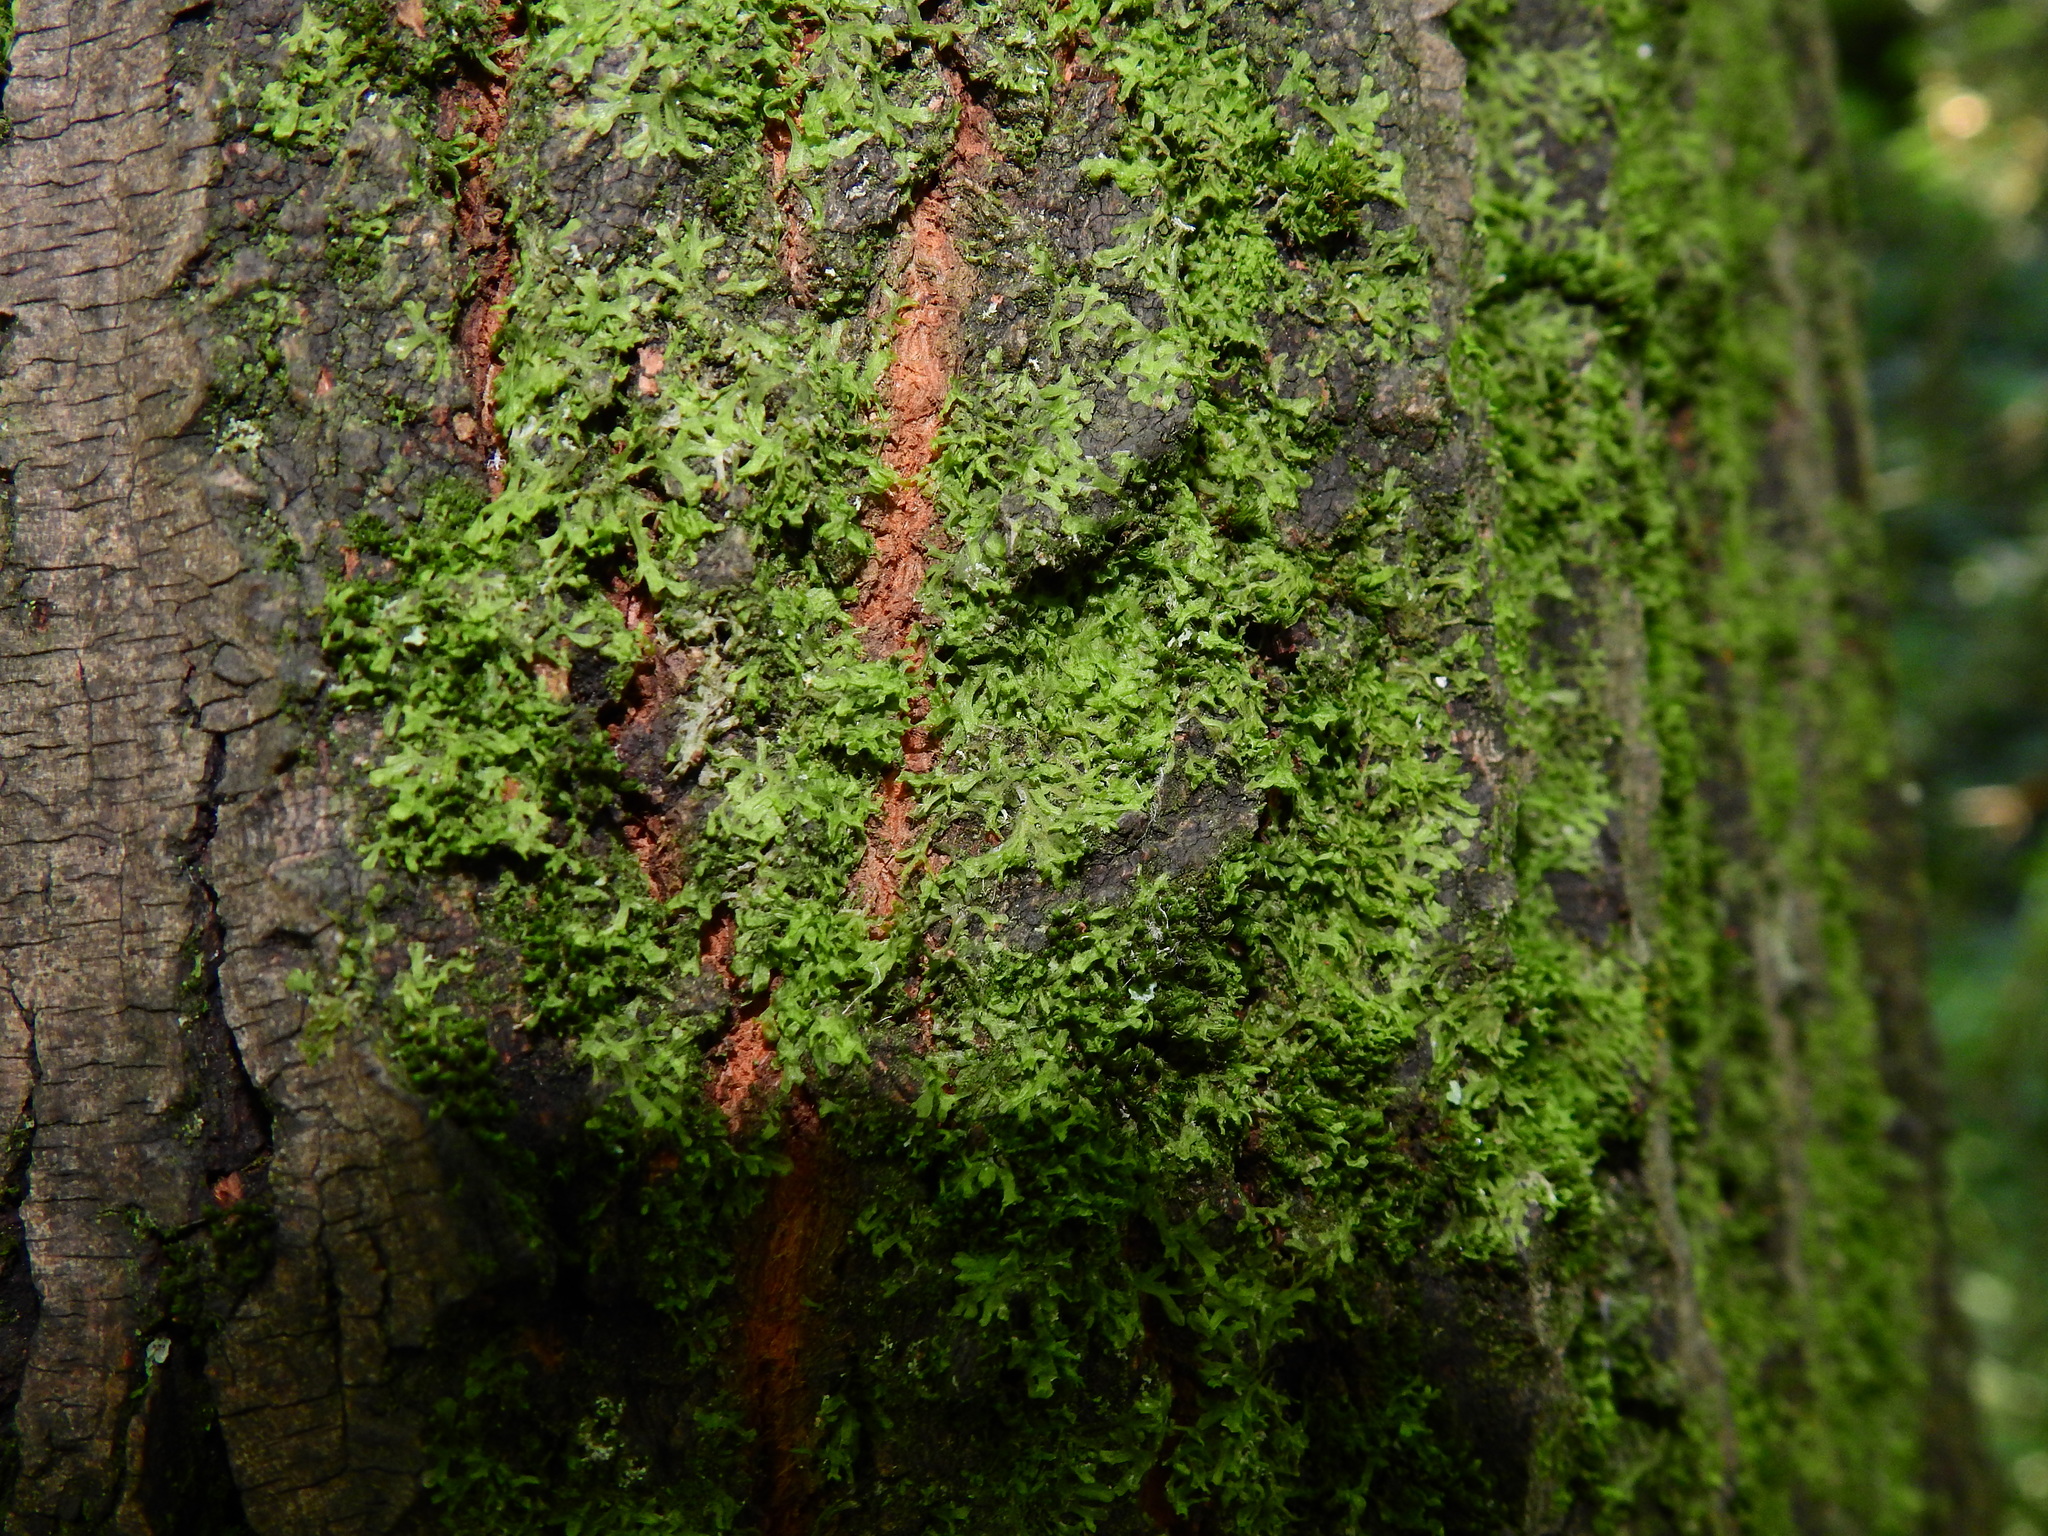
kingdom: Plantae
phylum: Marchantiophyta
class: Jungermanniopsida
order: Metzgeriales
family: Metzgeriaceae
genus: Metzgeria
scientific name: Metzgeria violacea
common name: Blueish veilwort
